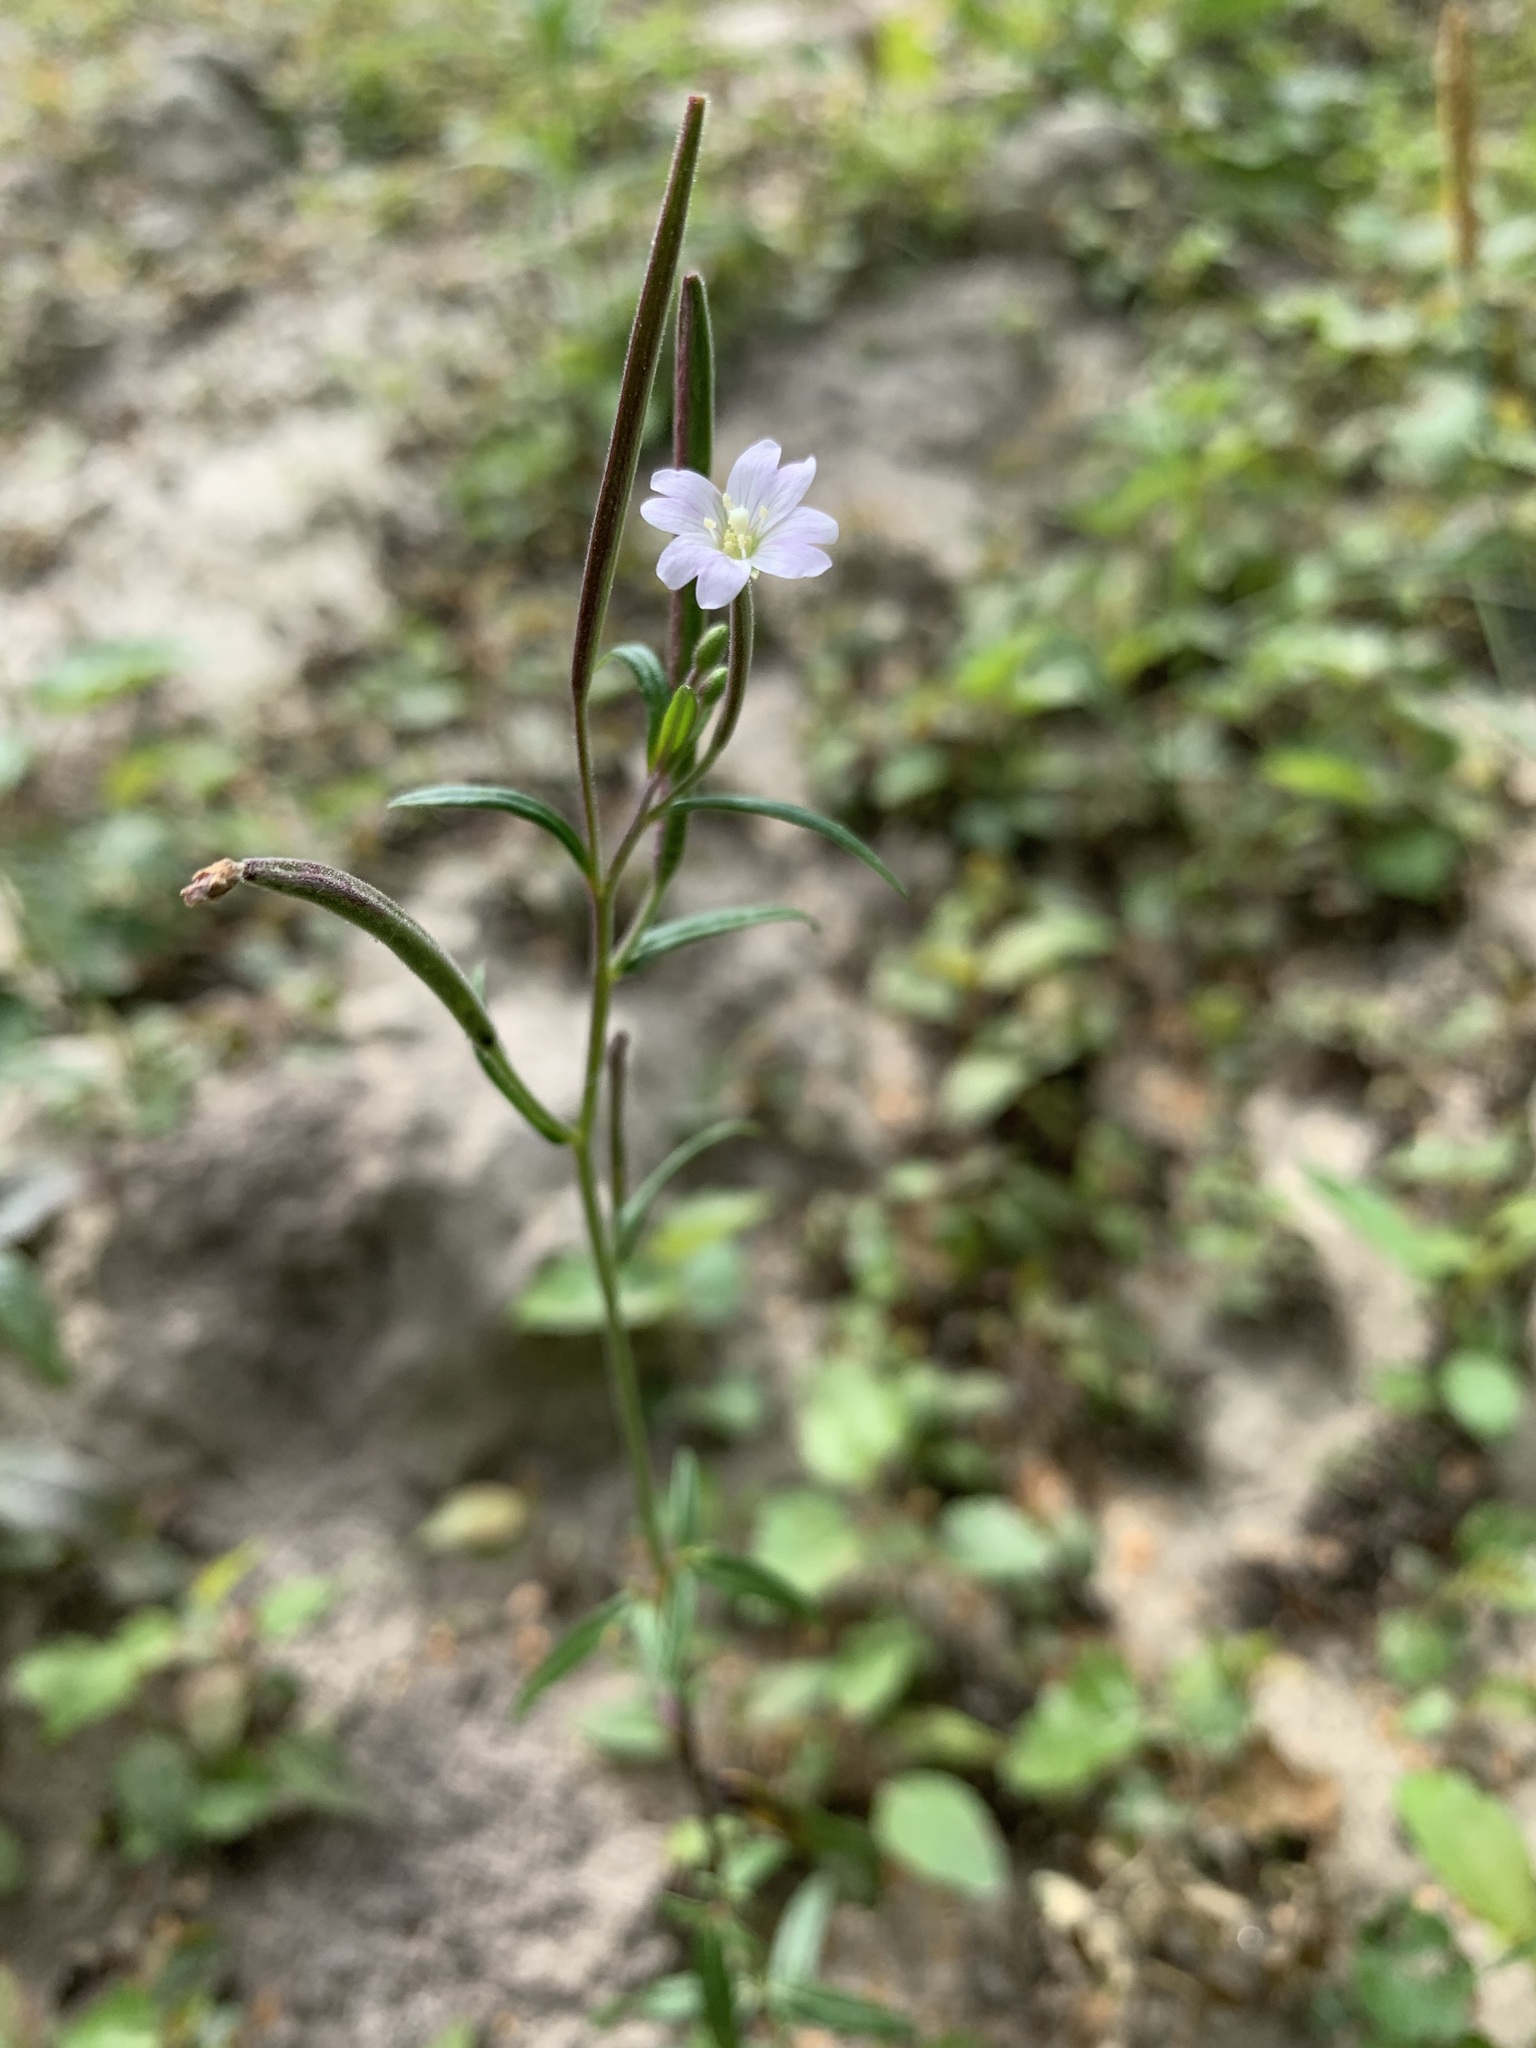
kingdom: Plantae
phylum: Tracheophyta
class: Magnoliopsida
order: Myrtales
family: Onagraceae
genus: Epilobium
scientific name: Epilobium palustre
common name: Marsh willowherb
